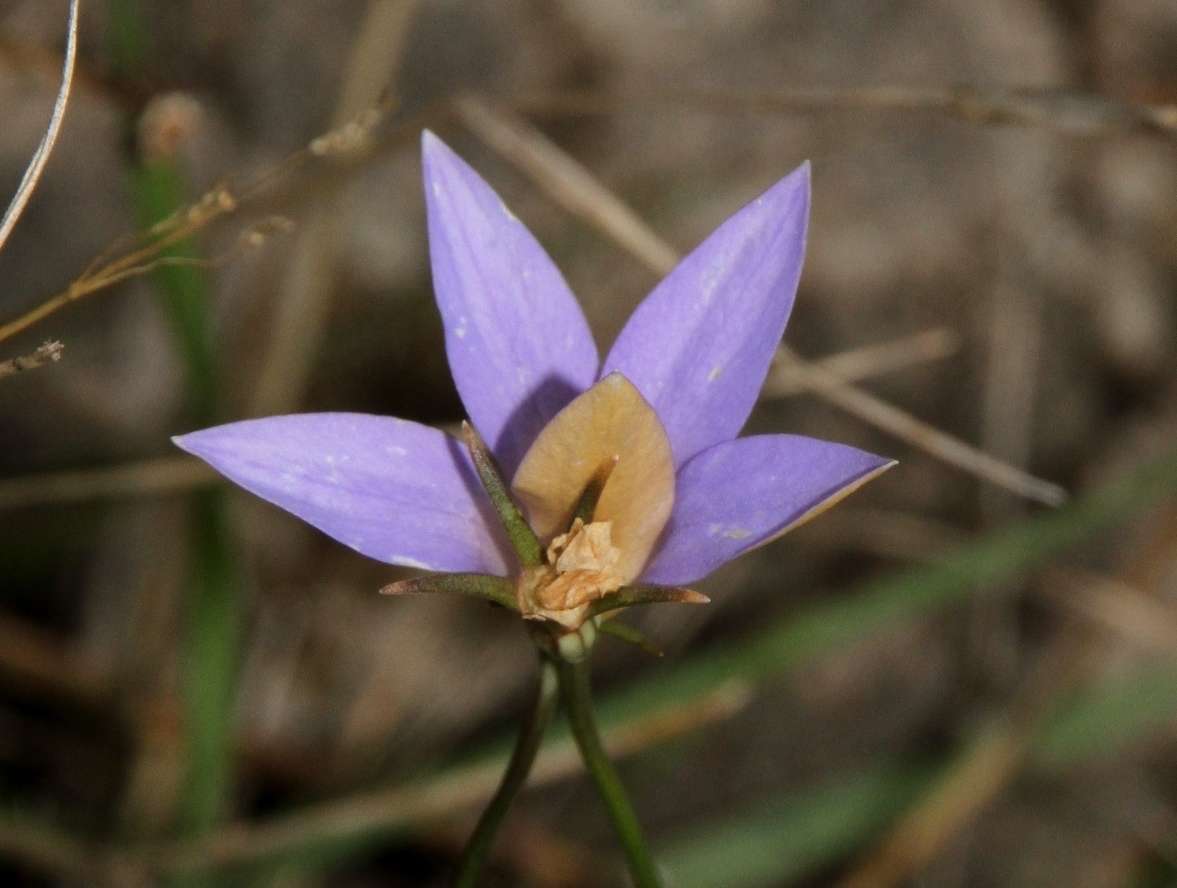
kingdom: Plantae
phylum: Tracheophyta
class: Magnoliopsida
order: Asterales
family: Campanulaceae
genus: Wahlenbergia
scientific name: Wahlenbergia luteola
